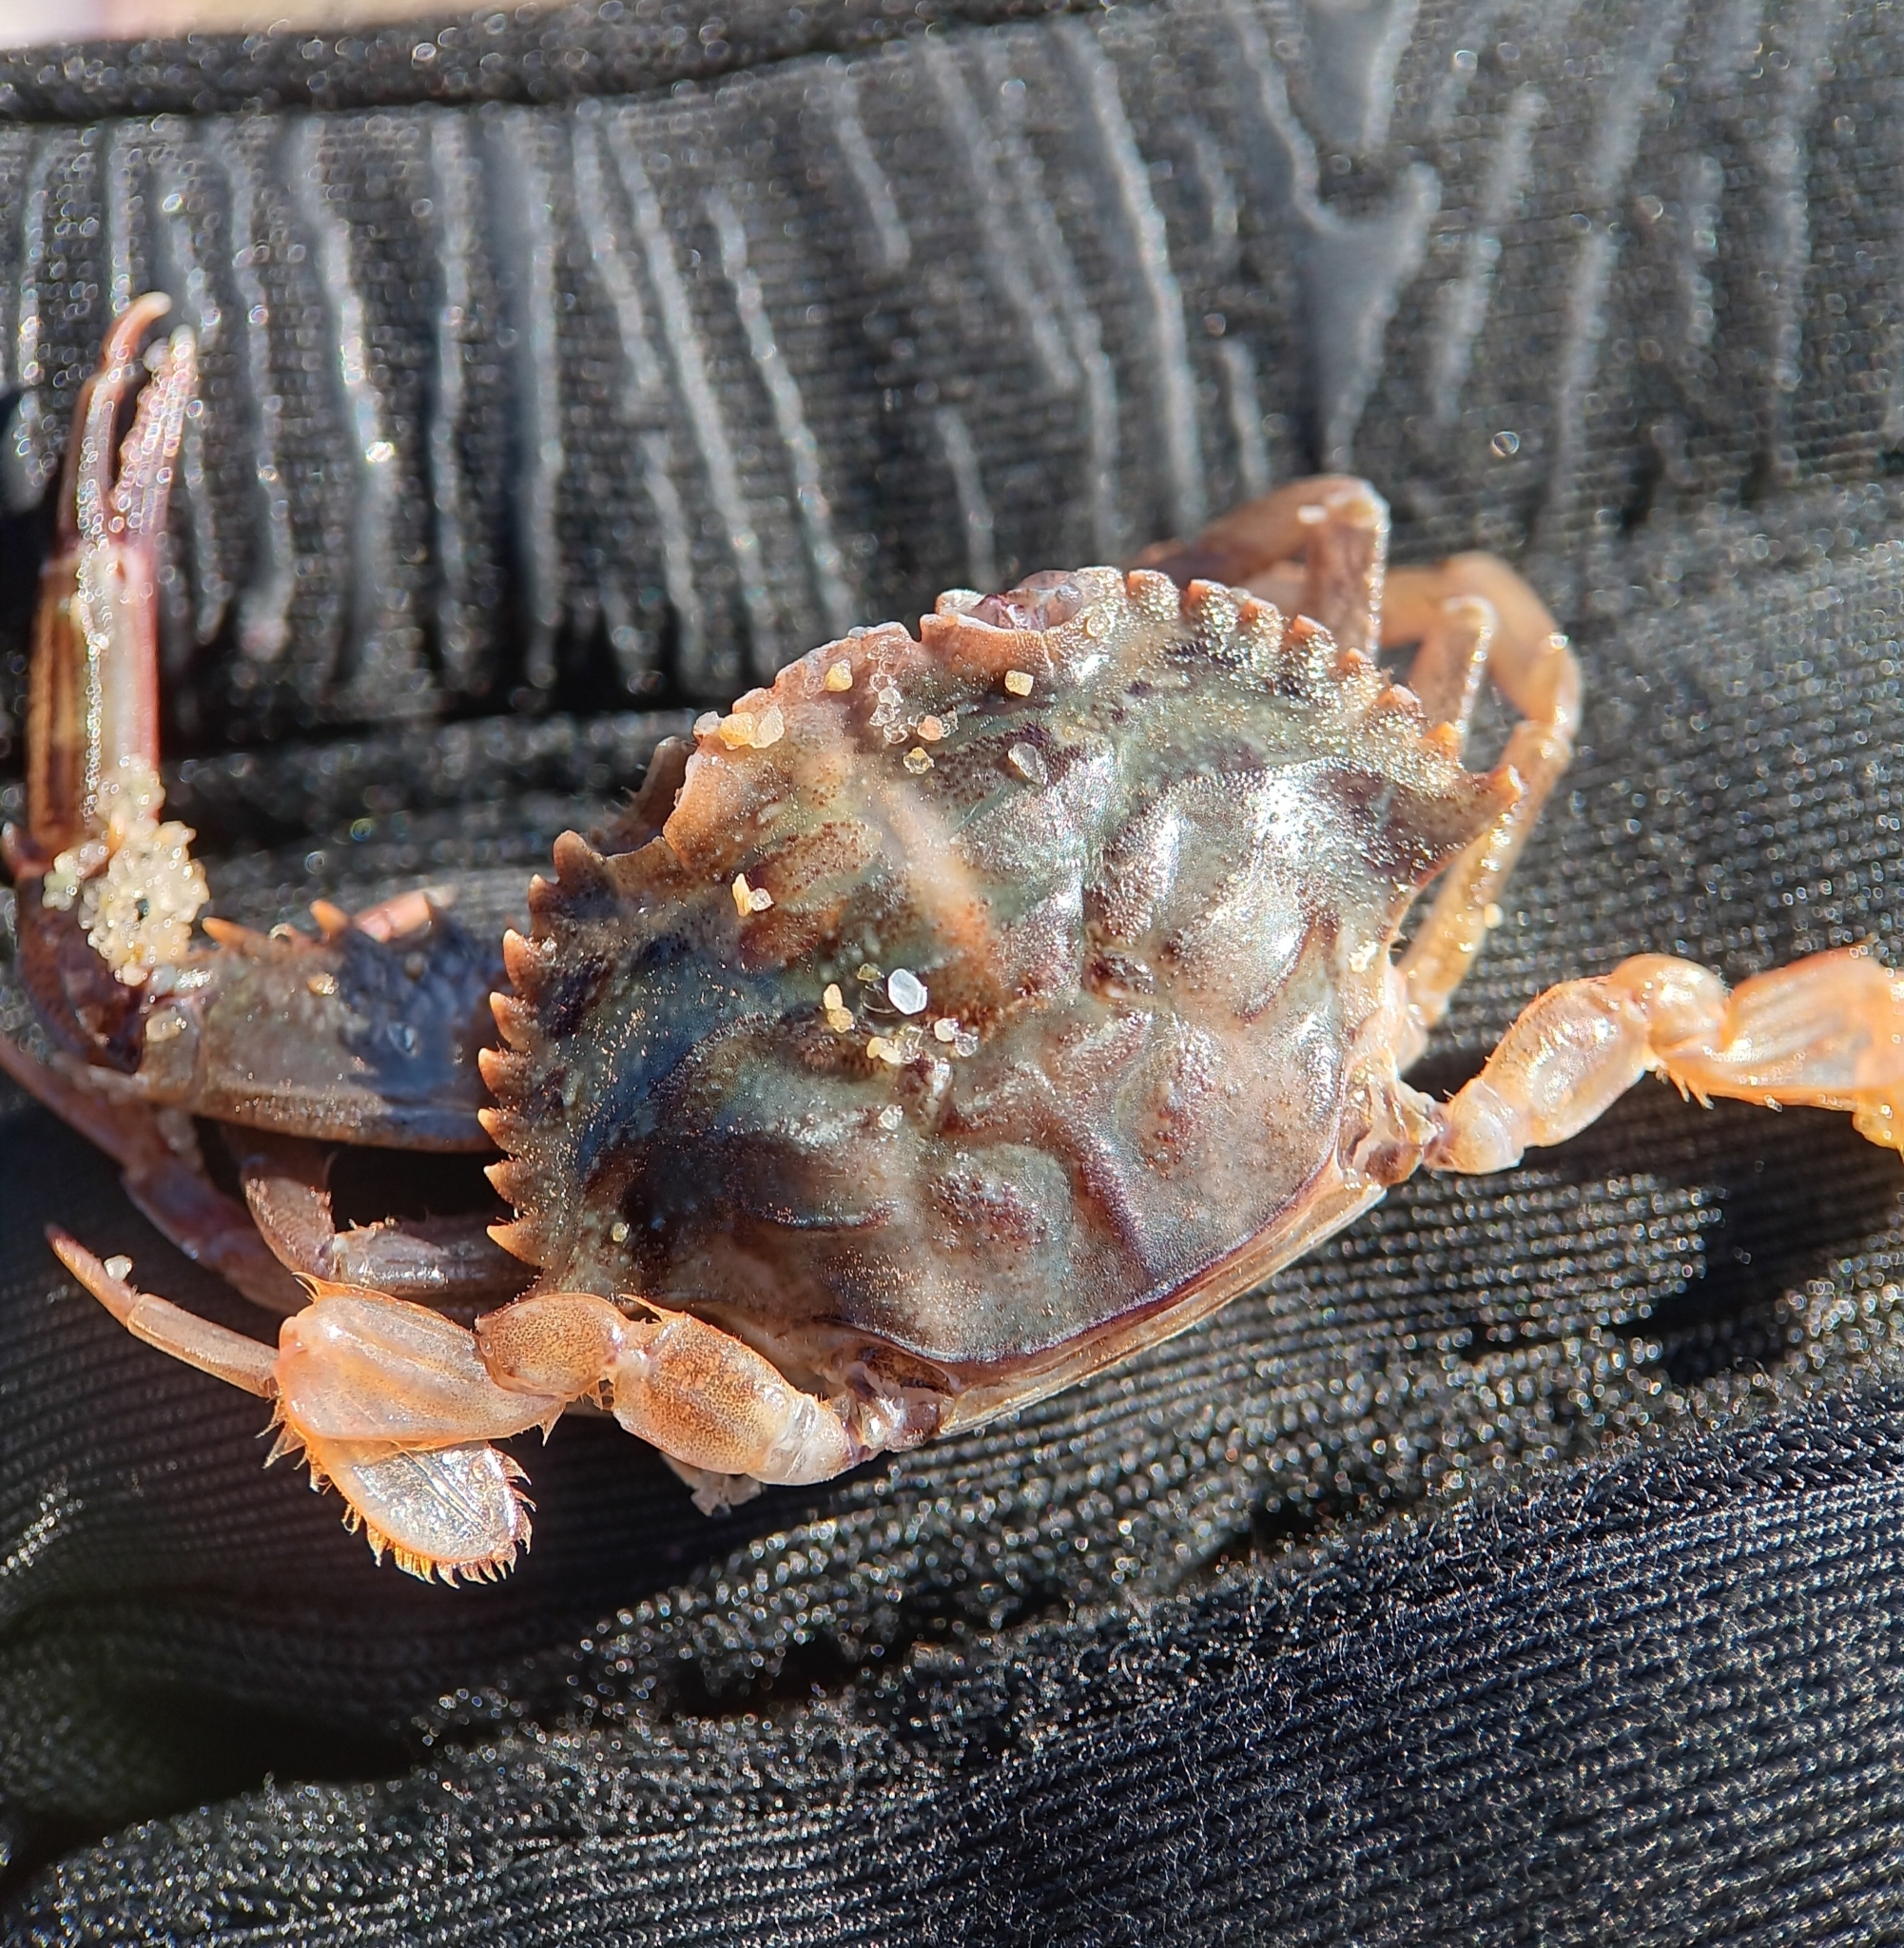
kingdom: Animalia
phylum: Arthropoda
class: Malacostraca
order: Decapoda
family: Portunidae
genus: Achelous
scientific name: Achelous gibbesii
